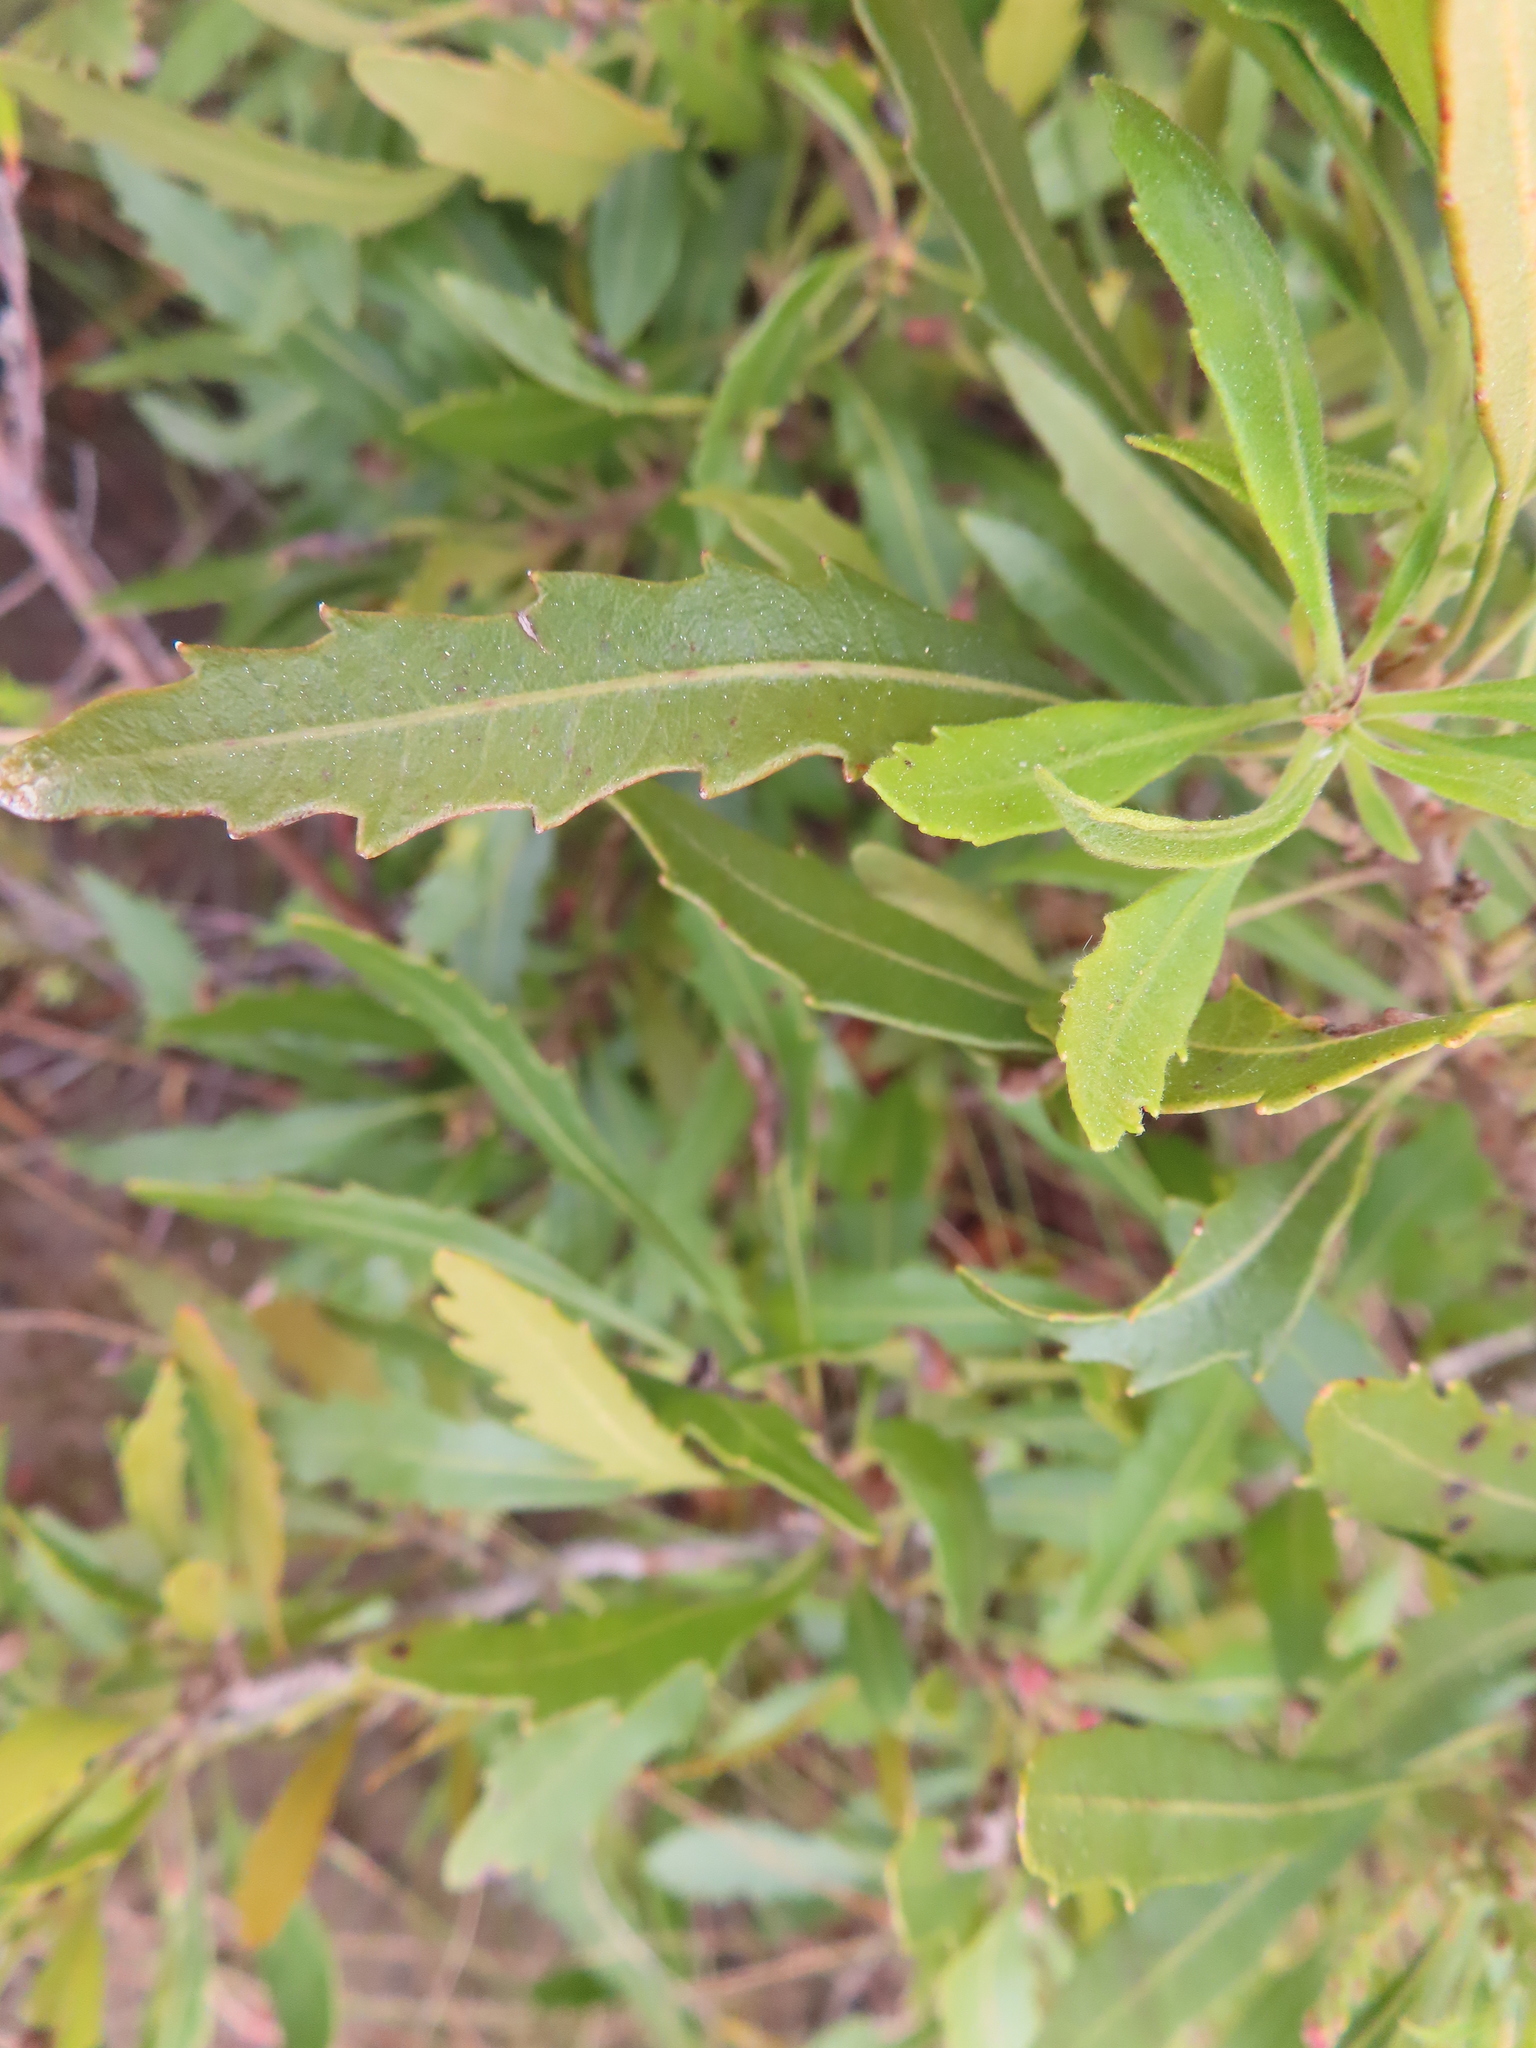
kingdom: Plantae
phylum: Tracheophyta
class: Magnoliopsida
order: Fagales
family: Myricaceae
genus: Morella
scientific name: Morella serrata
